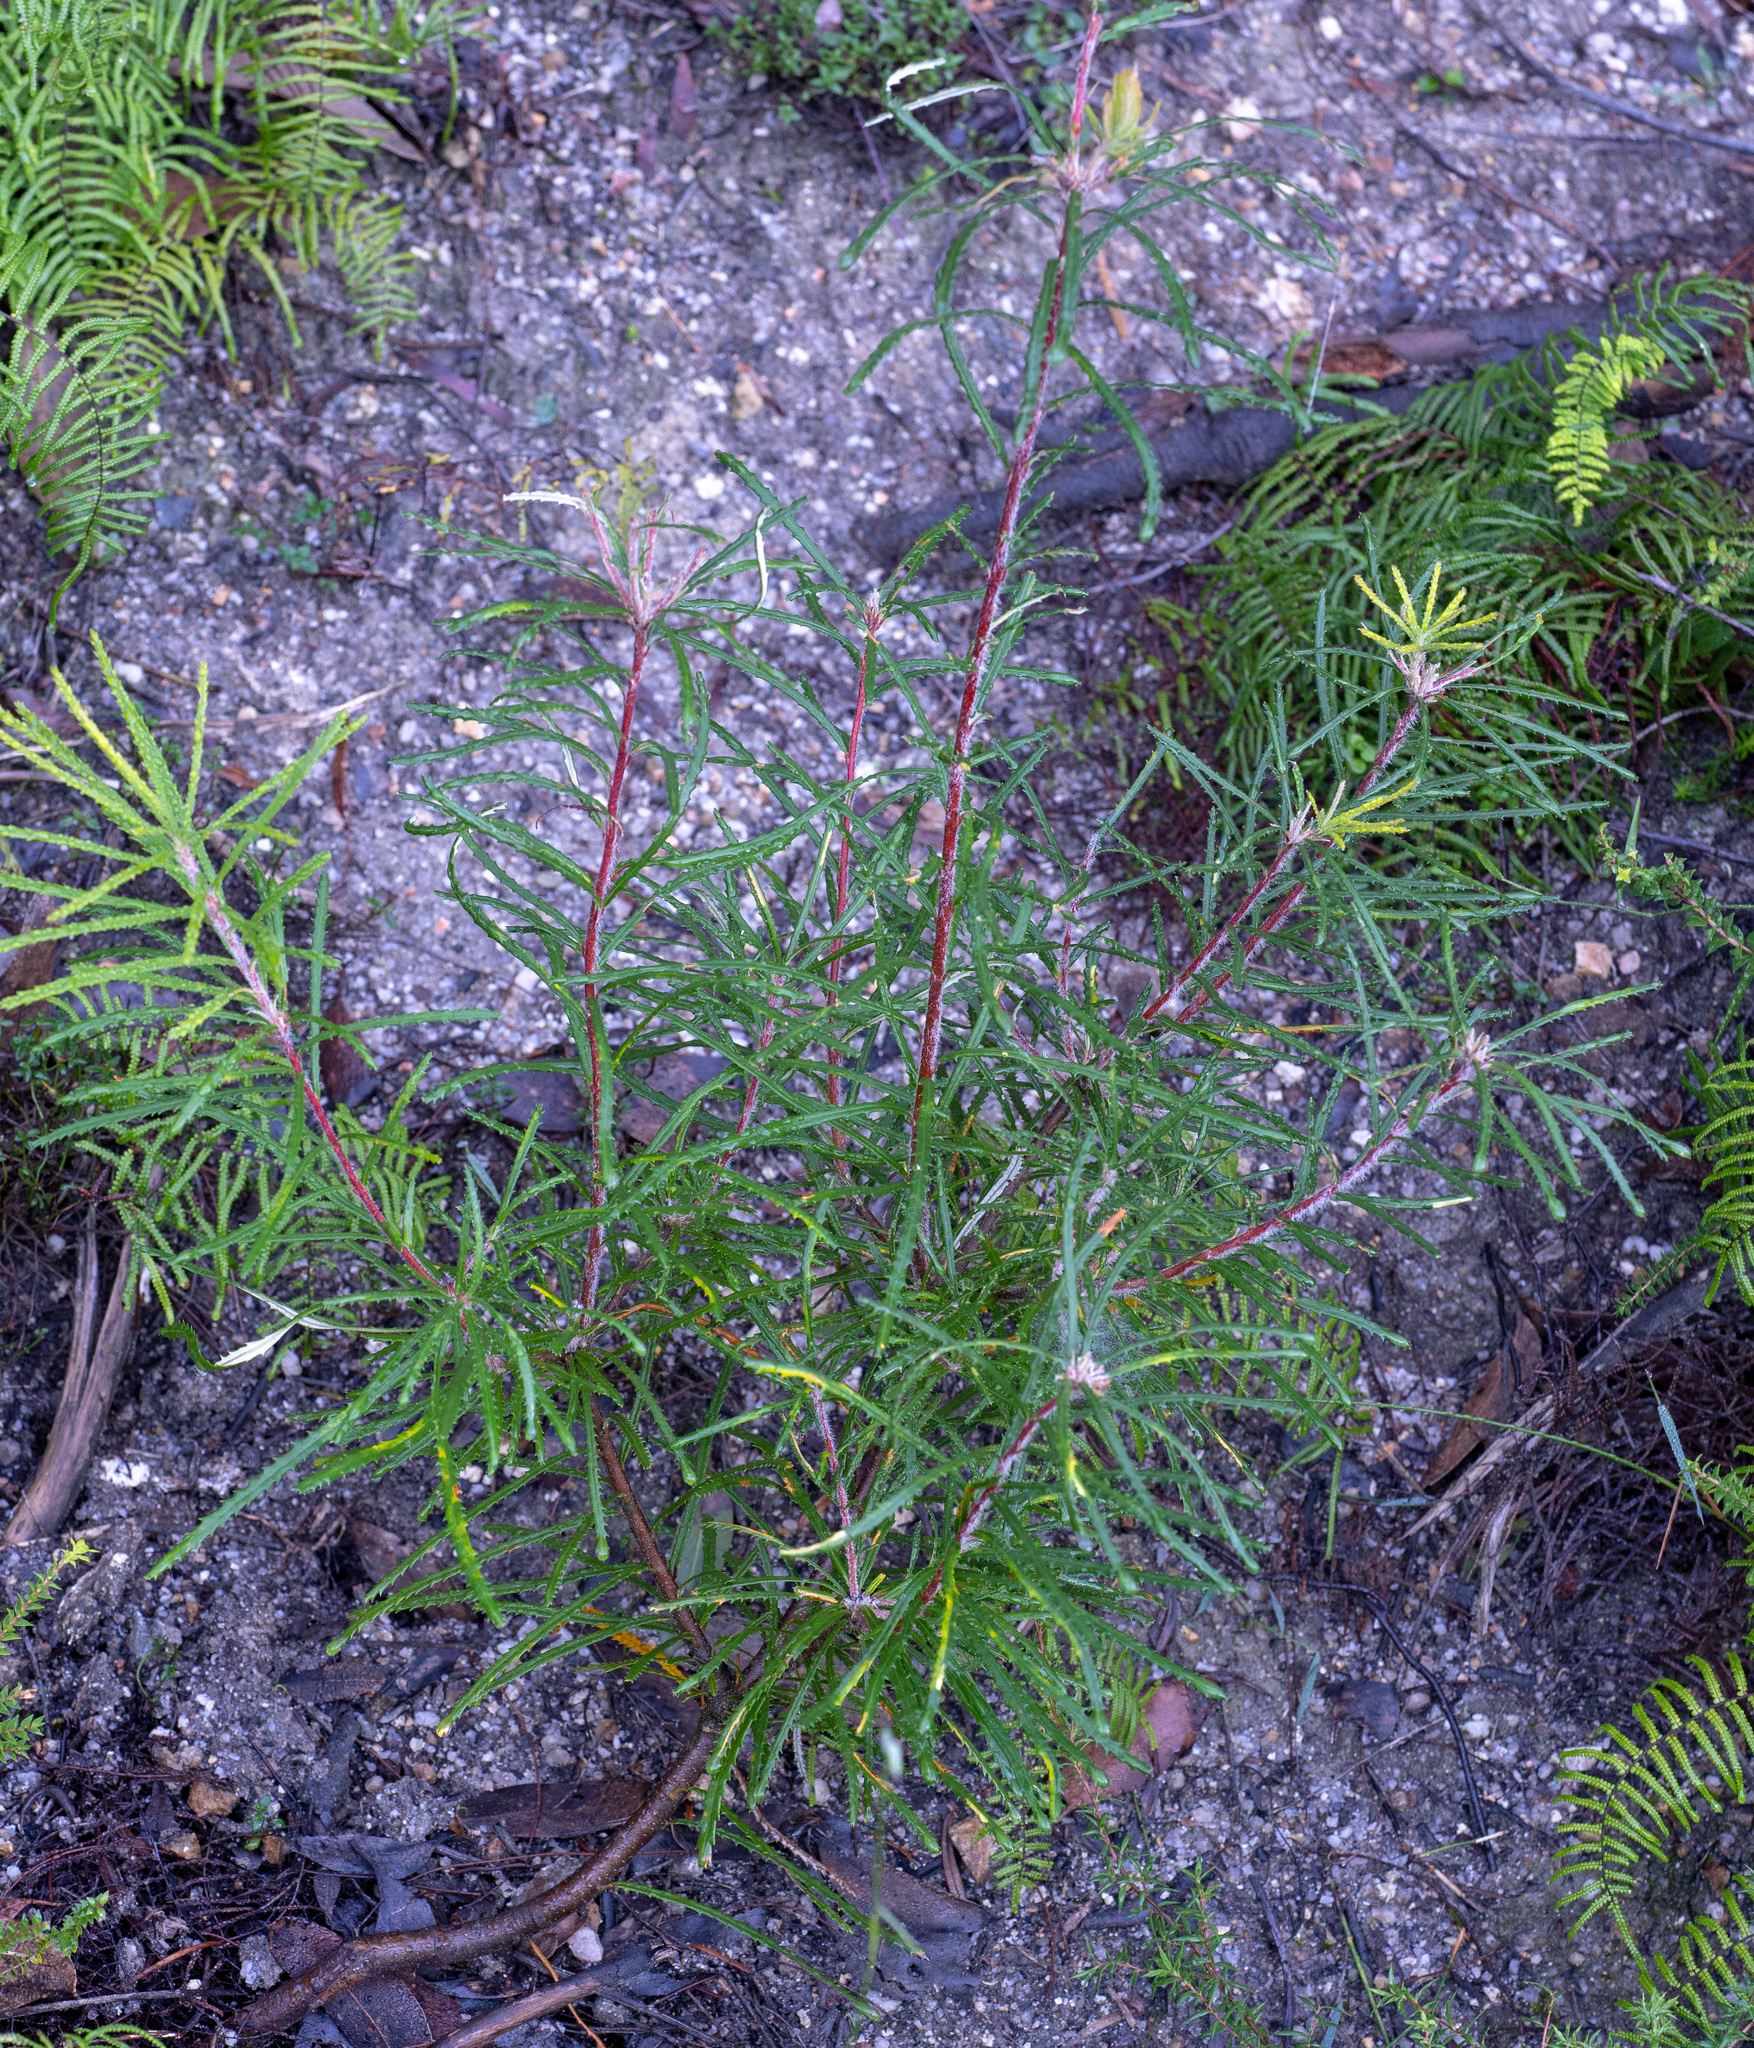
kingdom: Plantae
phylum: Tracheophyta
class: Magnoliopsida
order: Proteales
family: Proteaceae
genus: Banksia
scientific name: Banksia spinulosa
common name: Hairpin banksia
